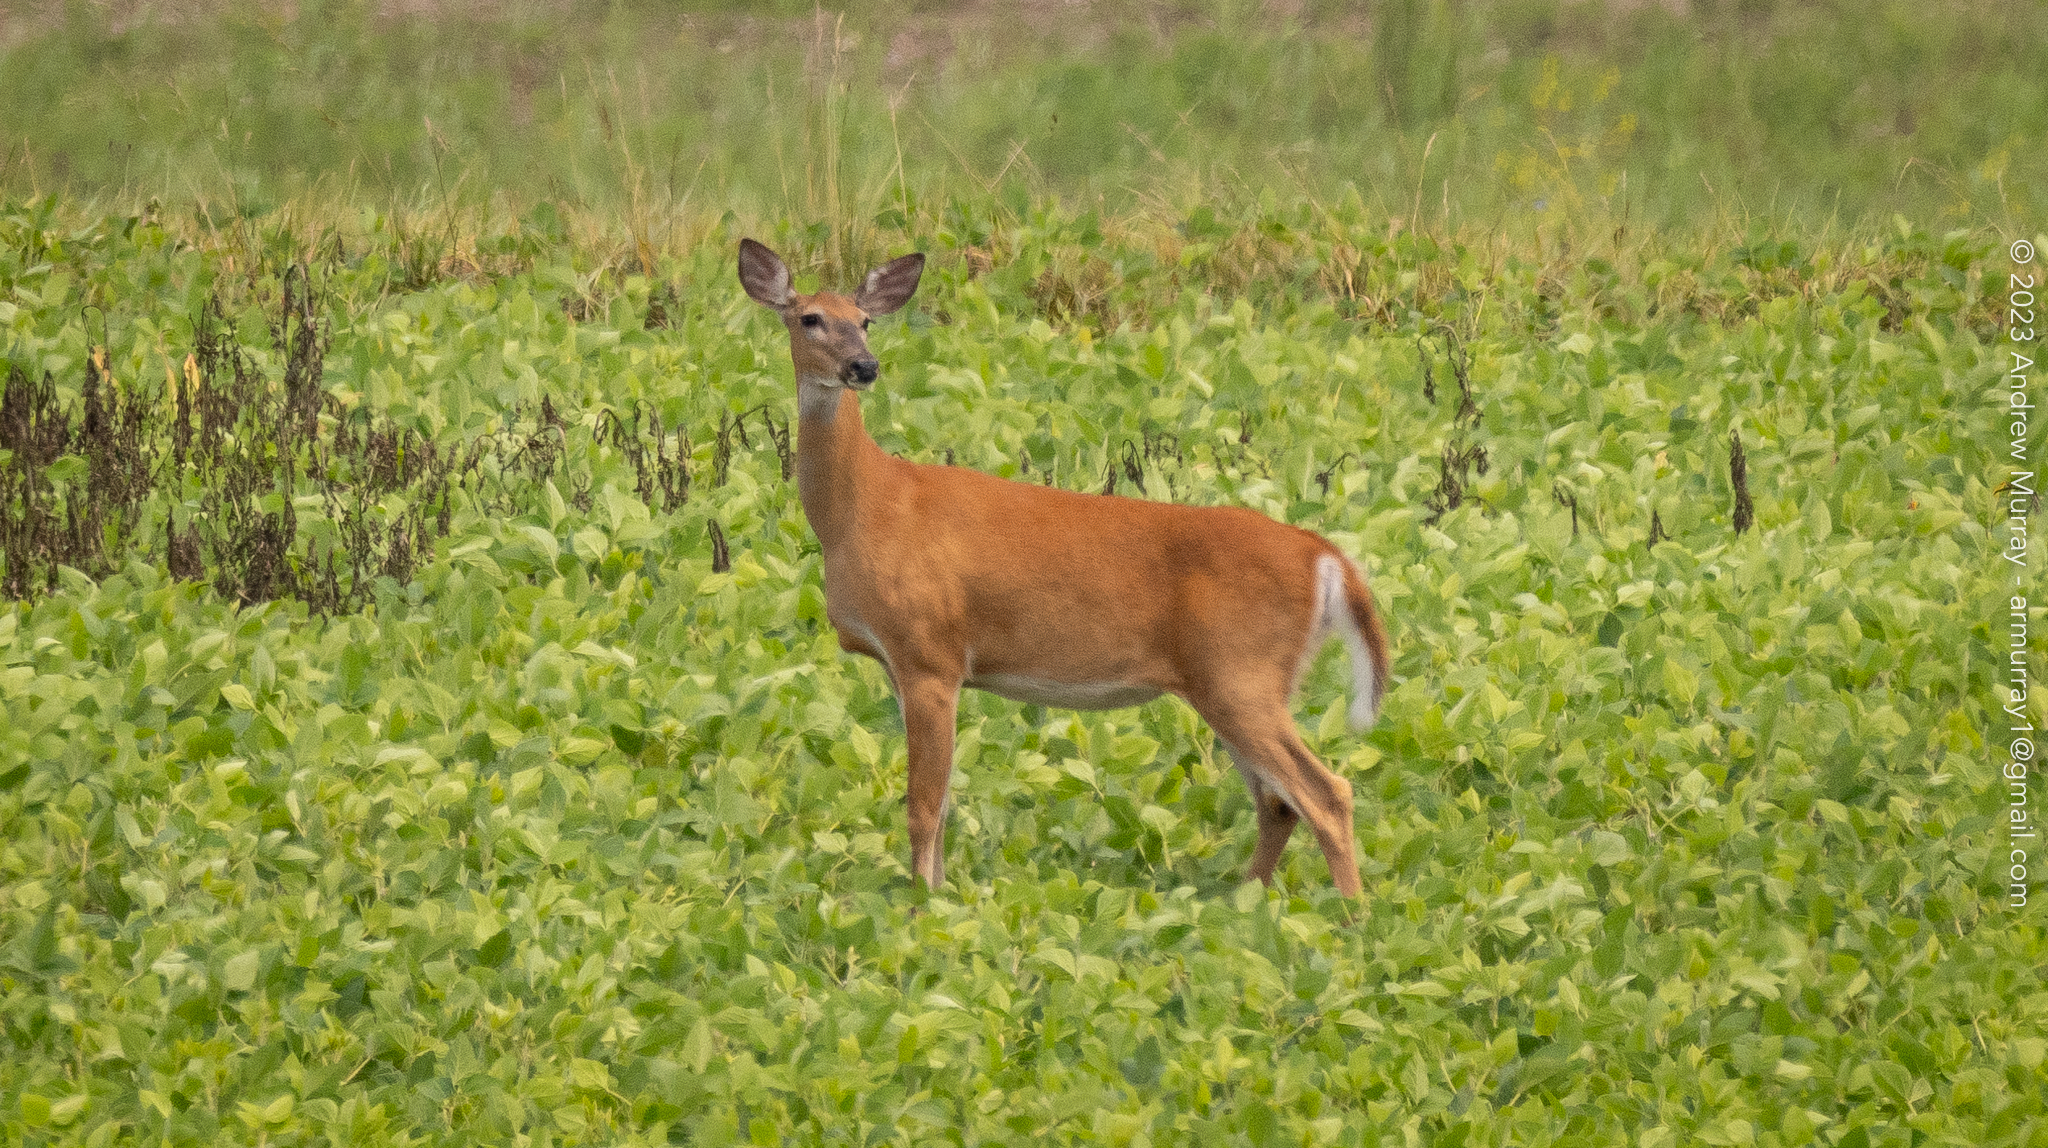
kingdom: Animalia
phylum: Chordata
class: Mammalia
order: Artiodactyla
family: Cervidae
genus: Odocoileus
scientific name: Odocoileus virginianus
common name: White-tailed deer
